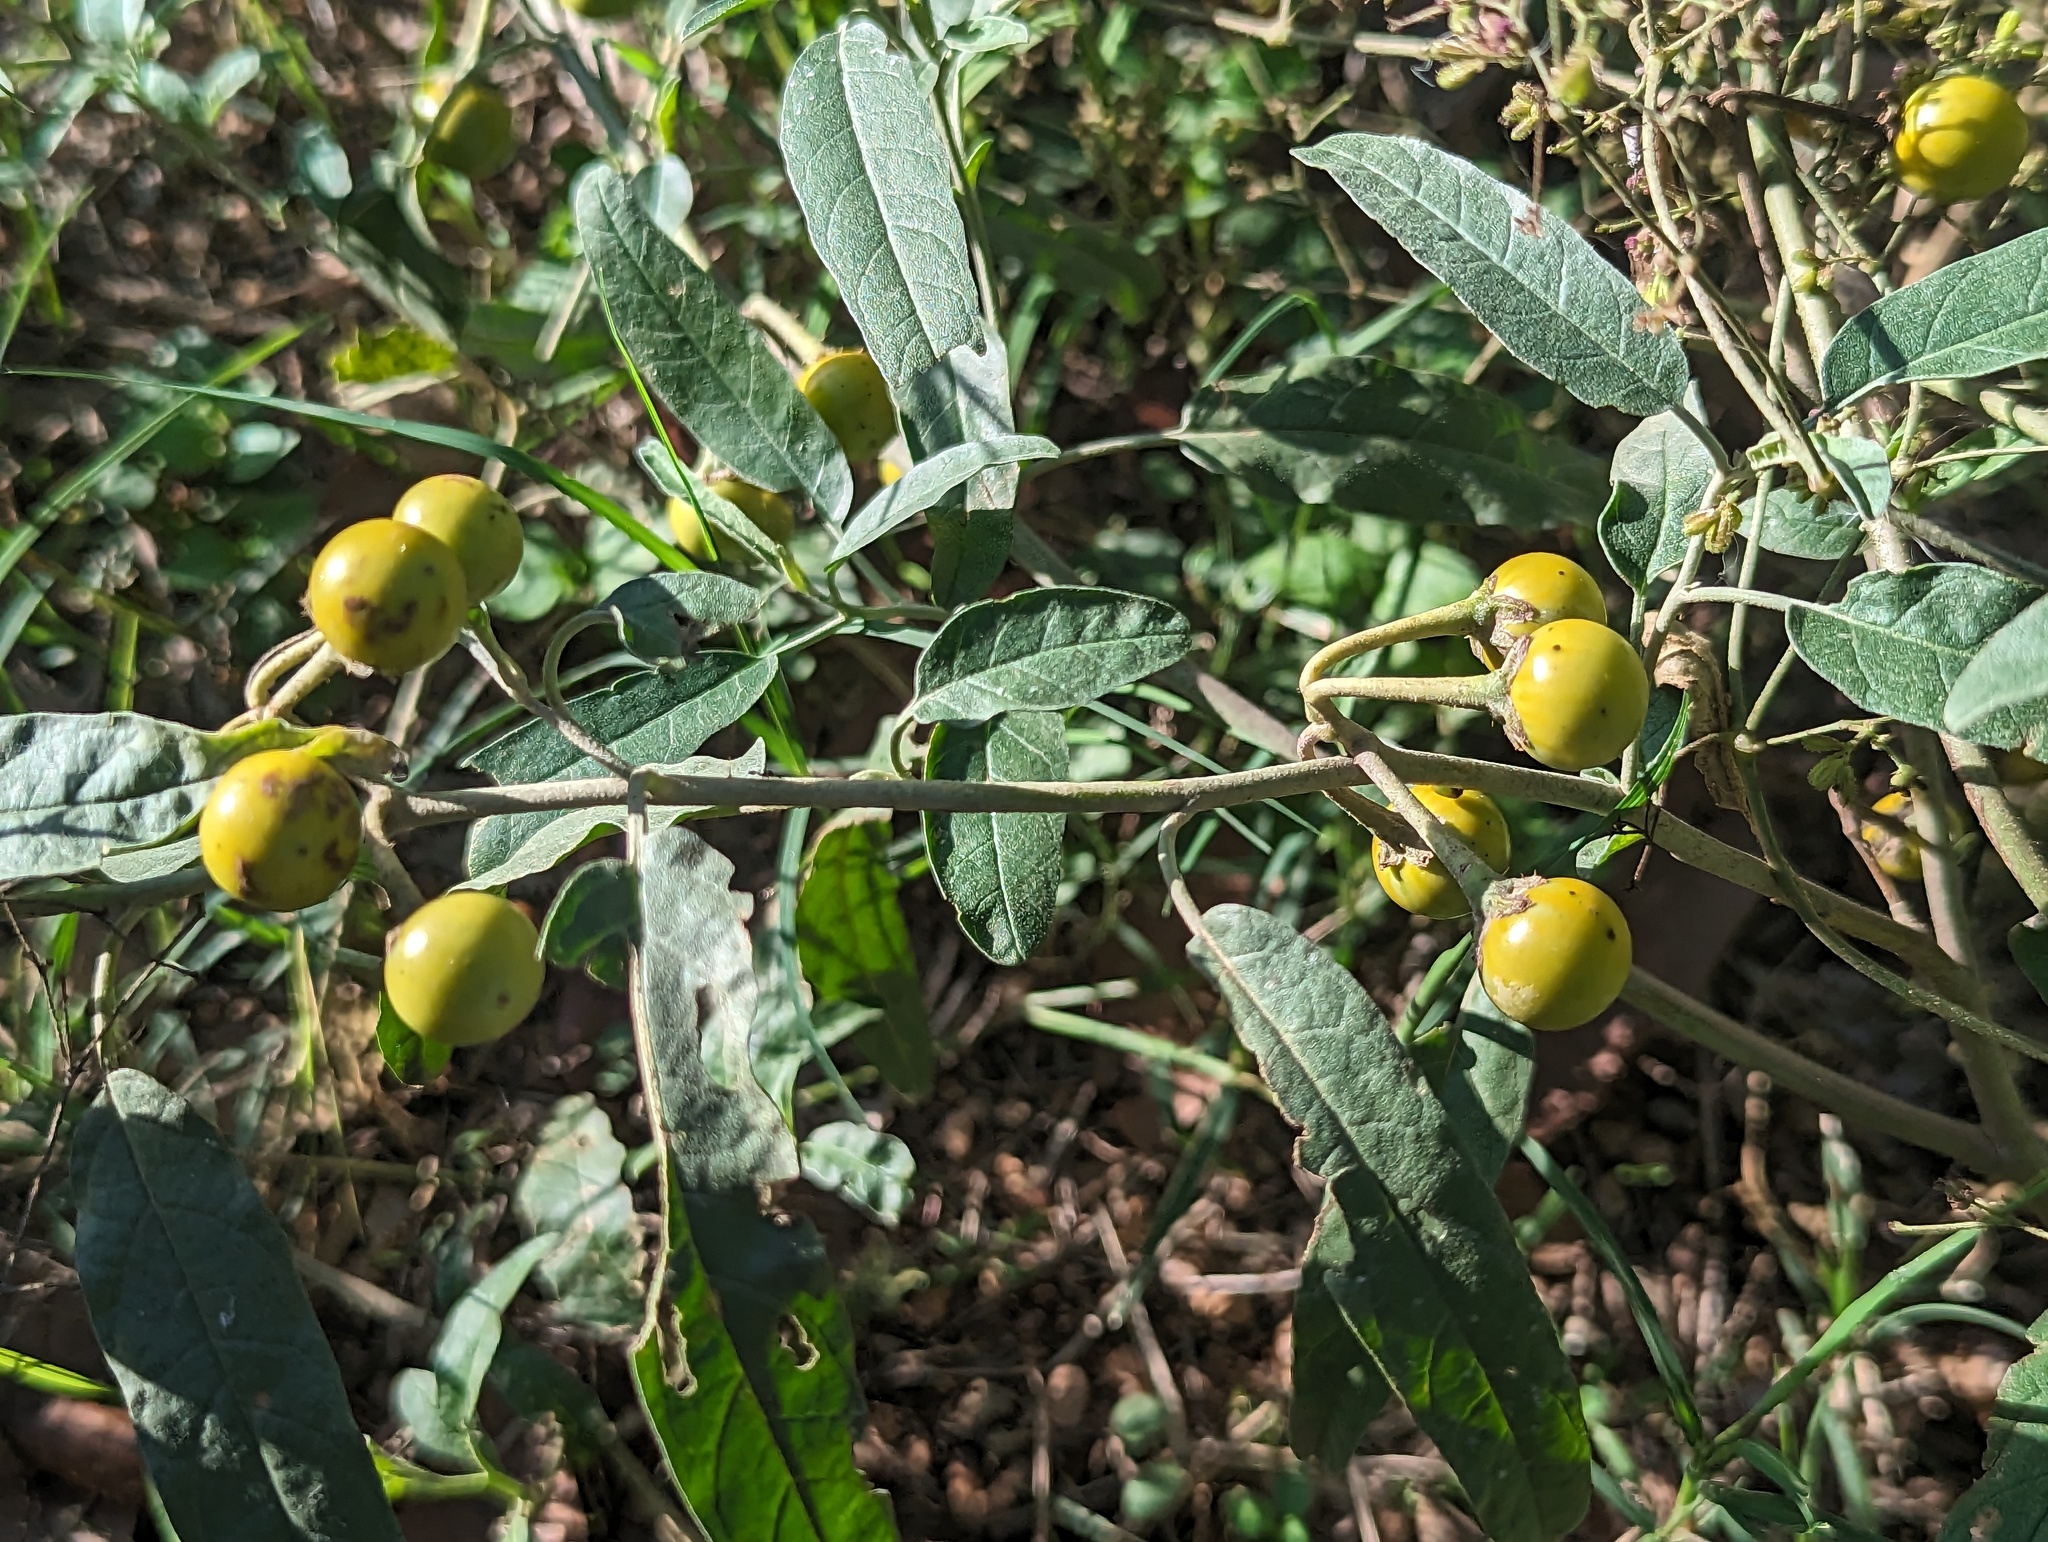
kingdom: Plantae
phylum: Tracheophyta
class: Magnoliopsida
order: Solanales
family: Solanaceae
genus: Solanum
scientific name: Solanum elaeagnifolium
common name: Silverleaf nightshade
